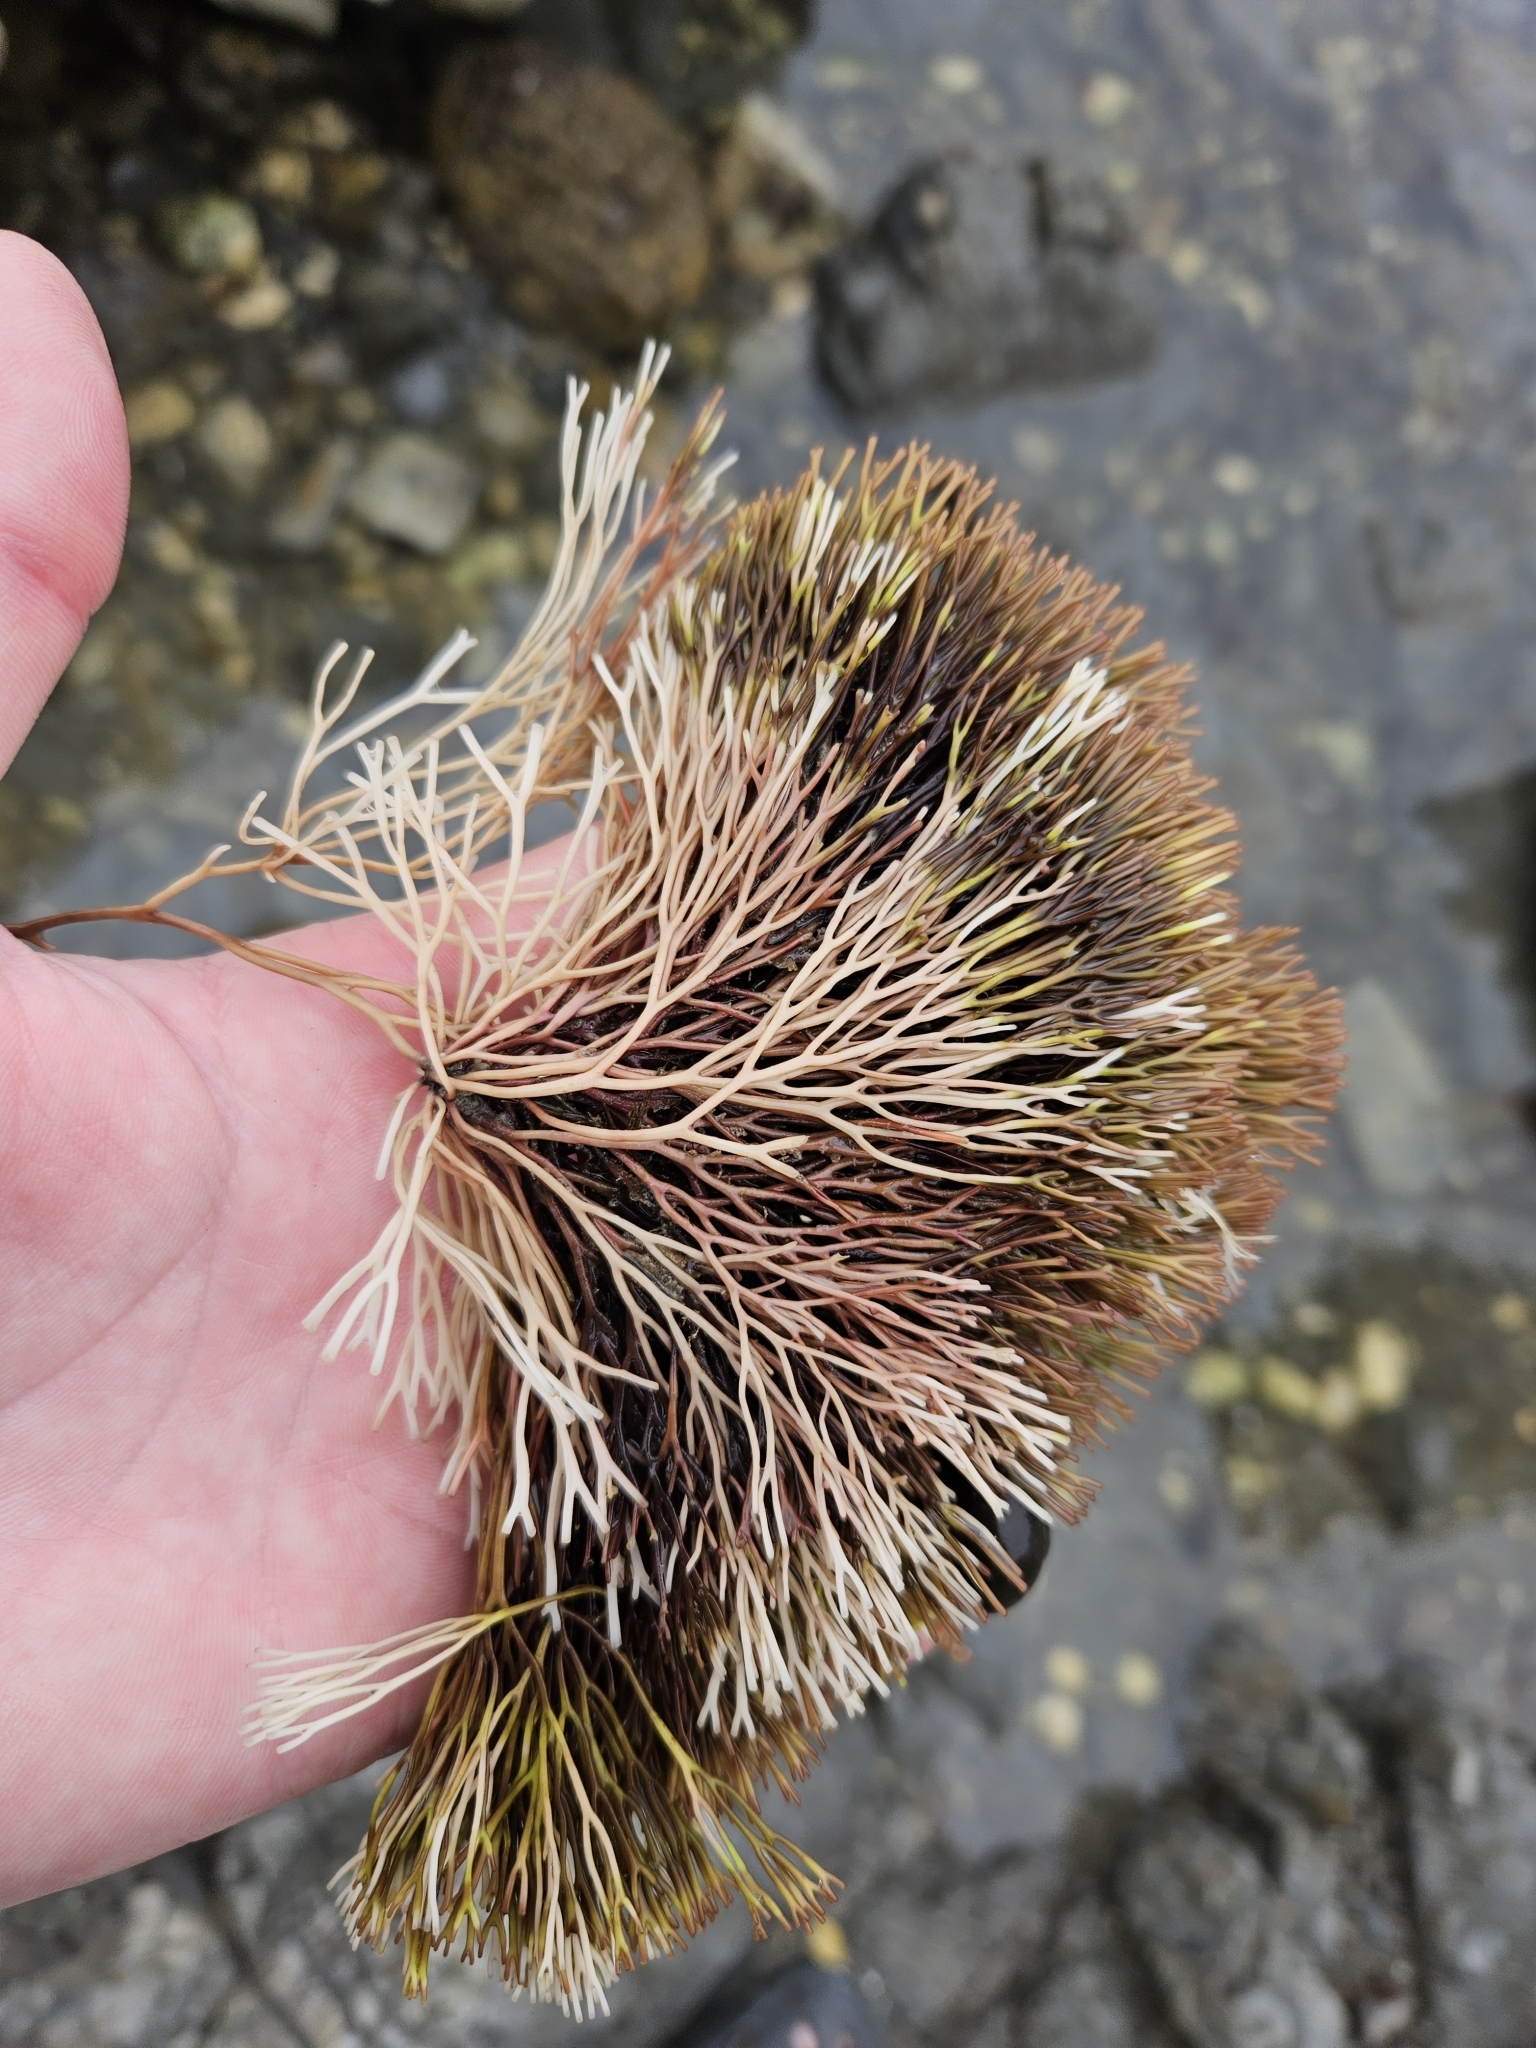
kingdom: Plantae
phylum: Rhodophyta
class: Florideophyceae
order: Gracilariales
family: Gracilariaceae
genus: Melanthalia
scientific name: Melanthalia abscissa
